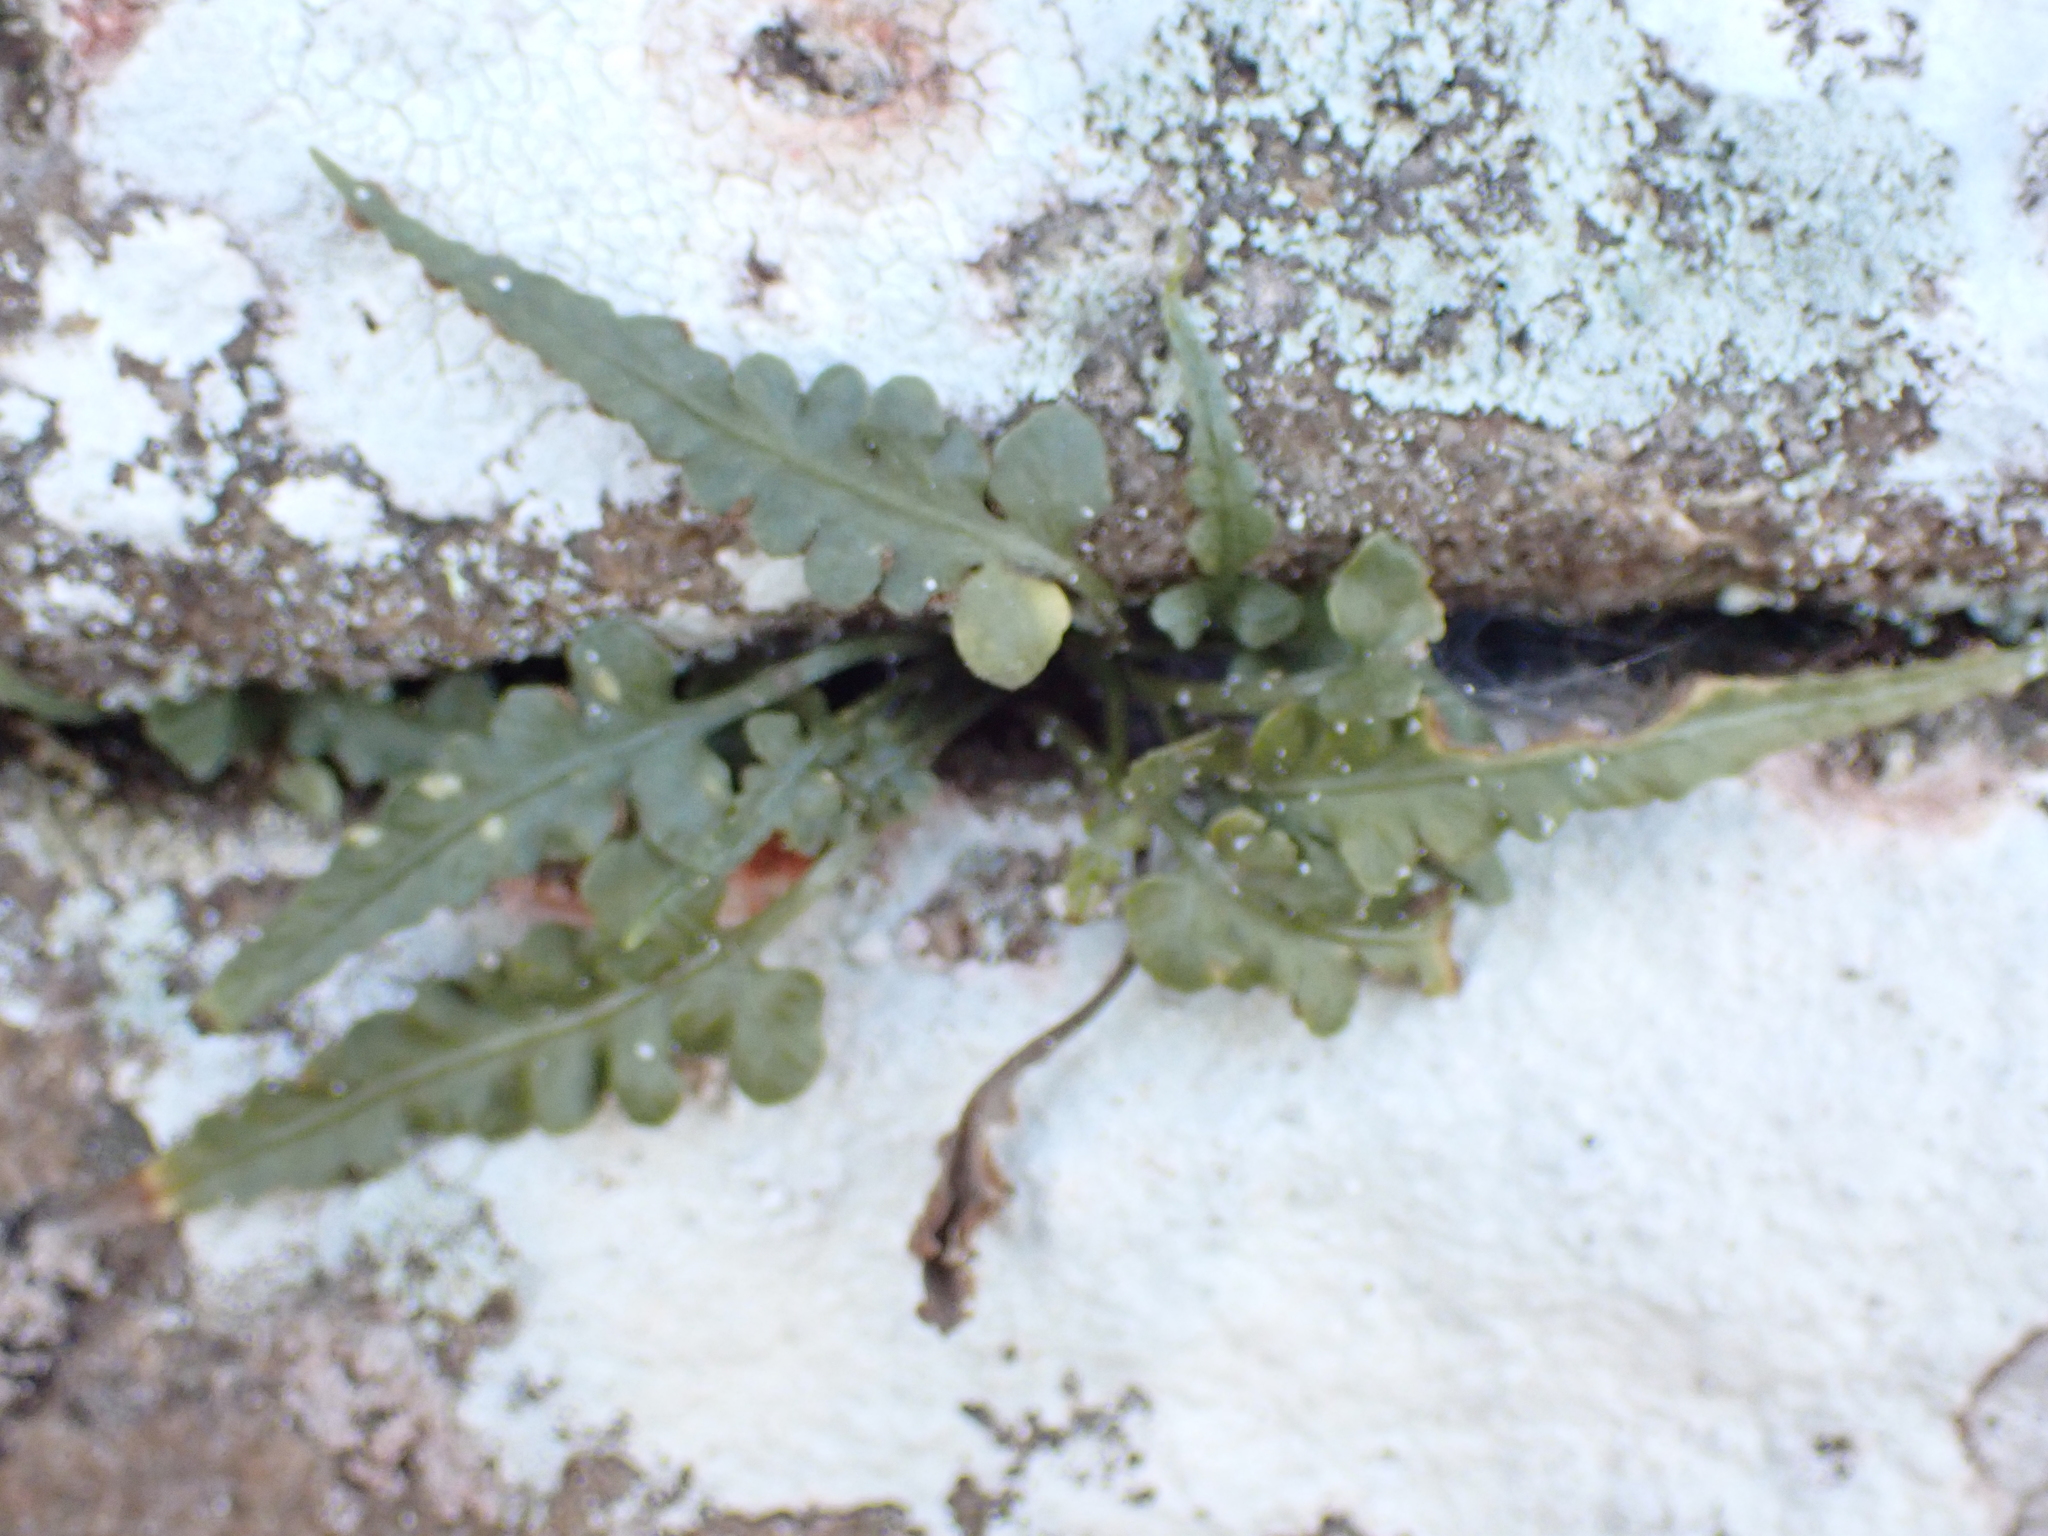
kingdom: Plantae
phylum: Tracheophyta
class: Polypodiopsida
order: Polypodiales
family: Aspleniaceae
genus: Asplenium
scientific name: Asplenium pinnatifidum
